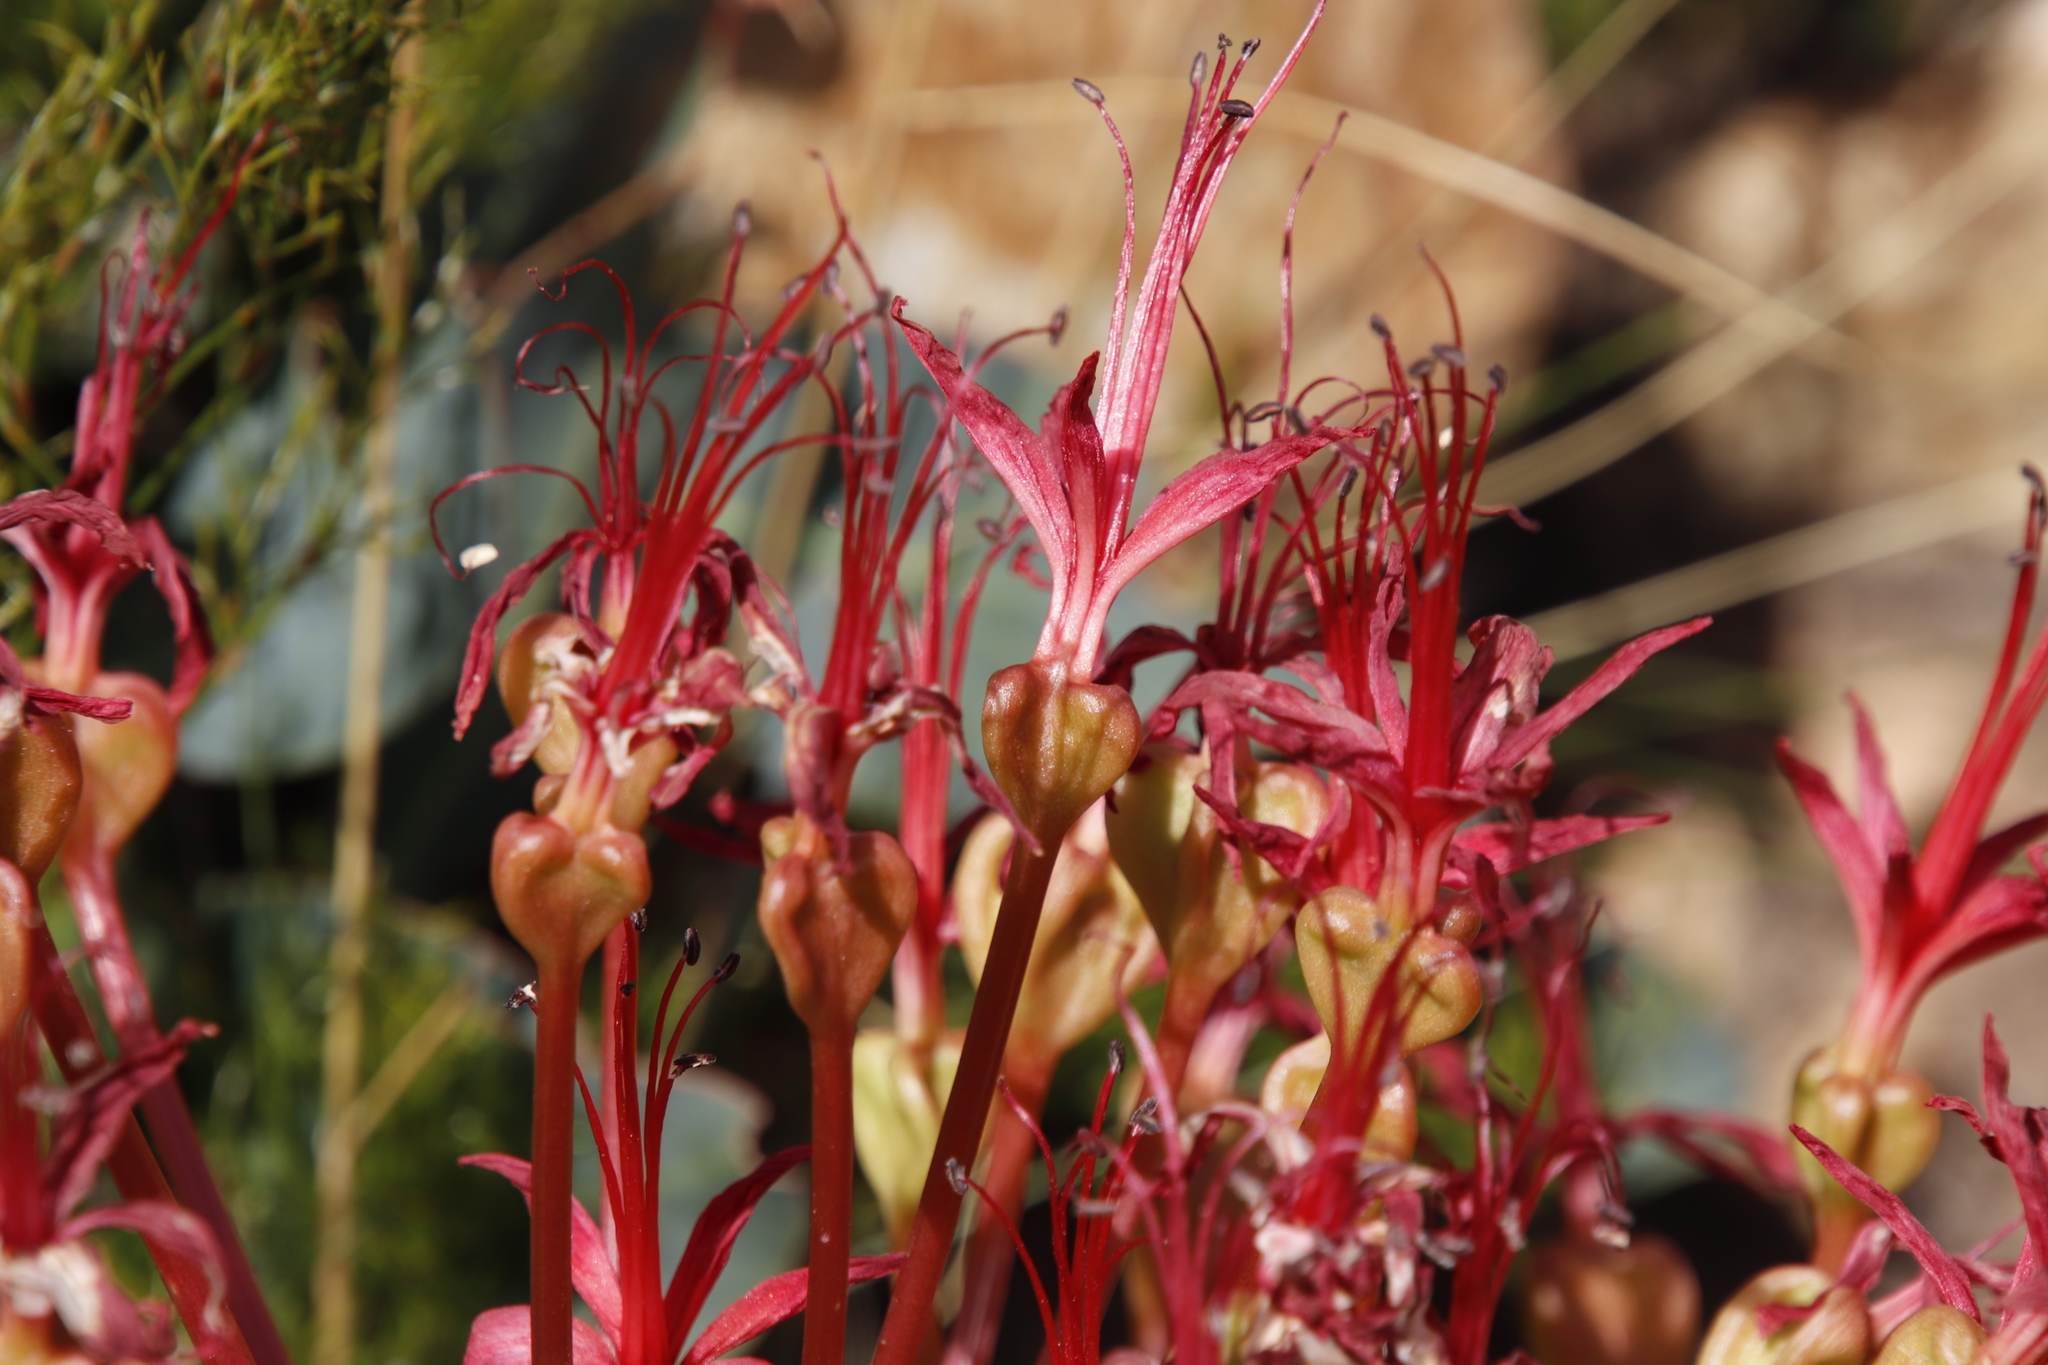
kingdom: Plantae
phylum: Tracheophyta
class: Liliopsida
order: Asparagales
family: Amaryllidaceae
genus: Brunsvigia
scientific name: Brunsvigia marginata
